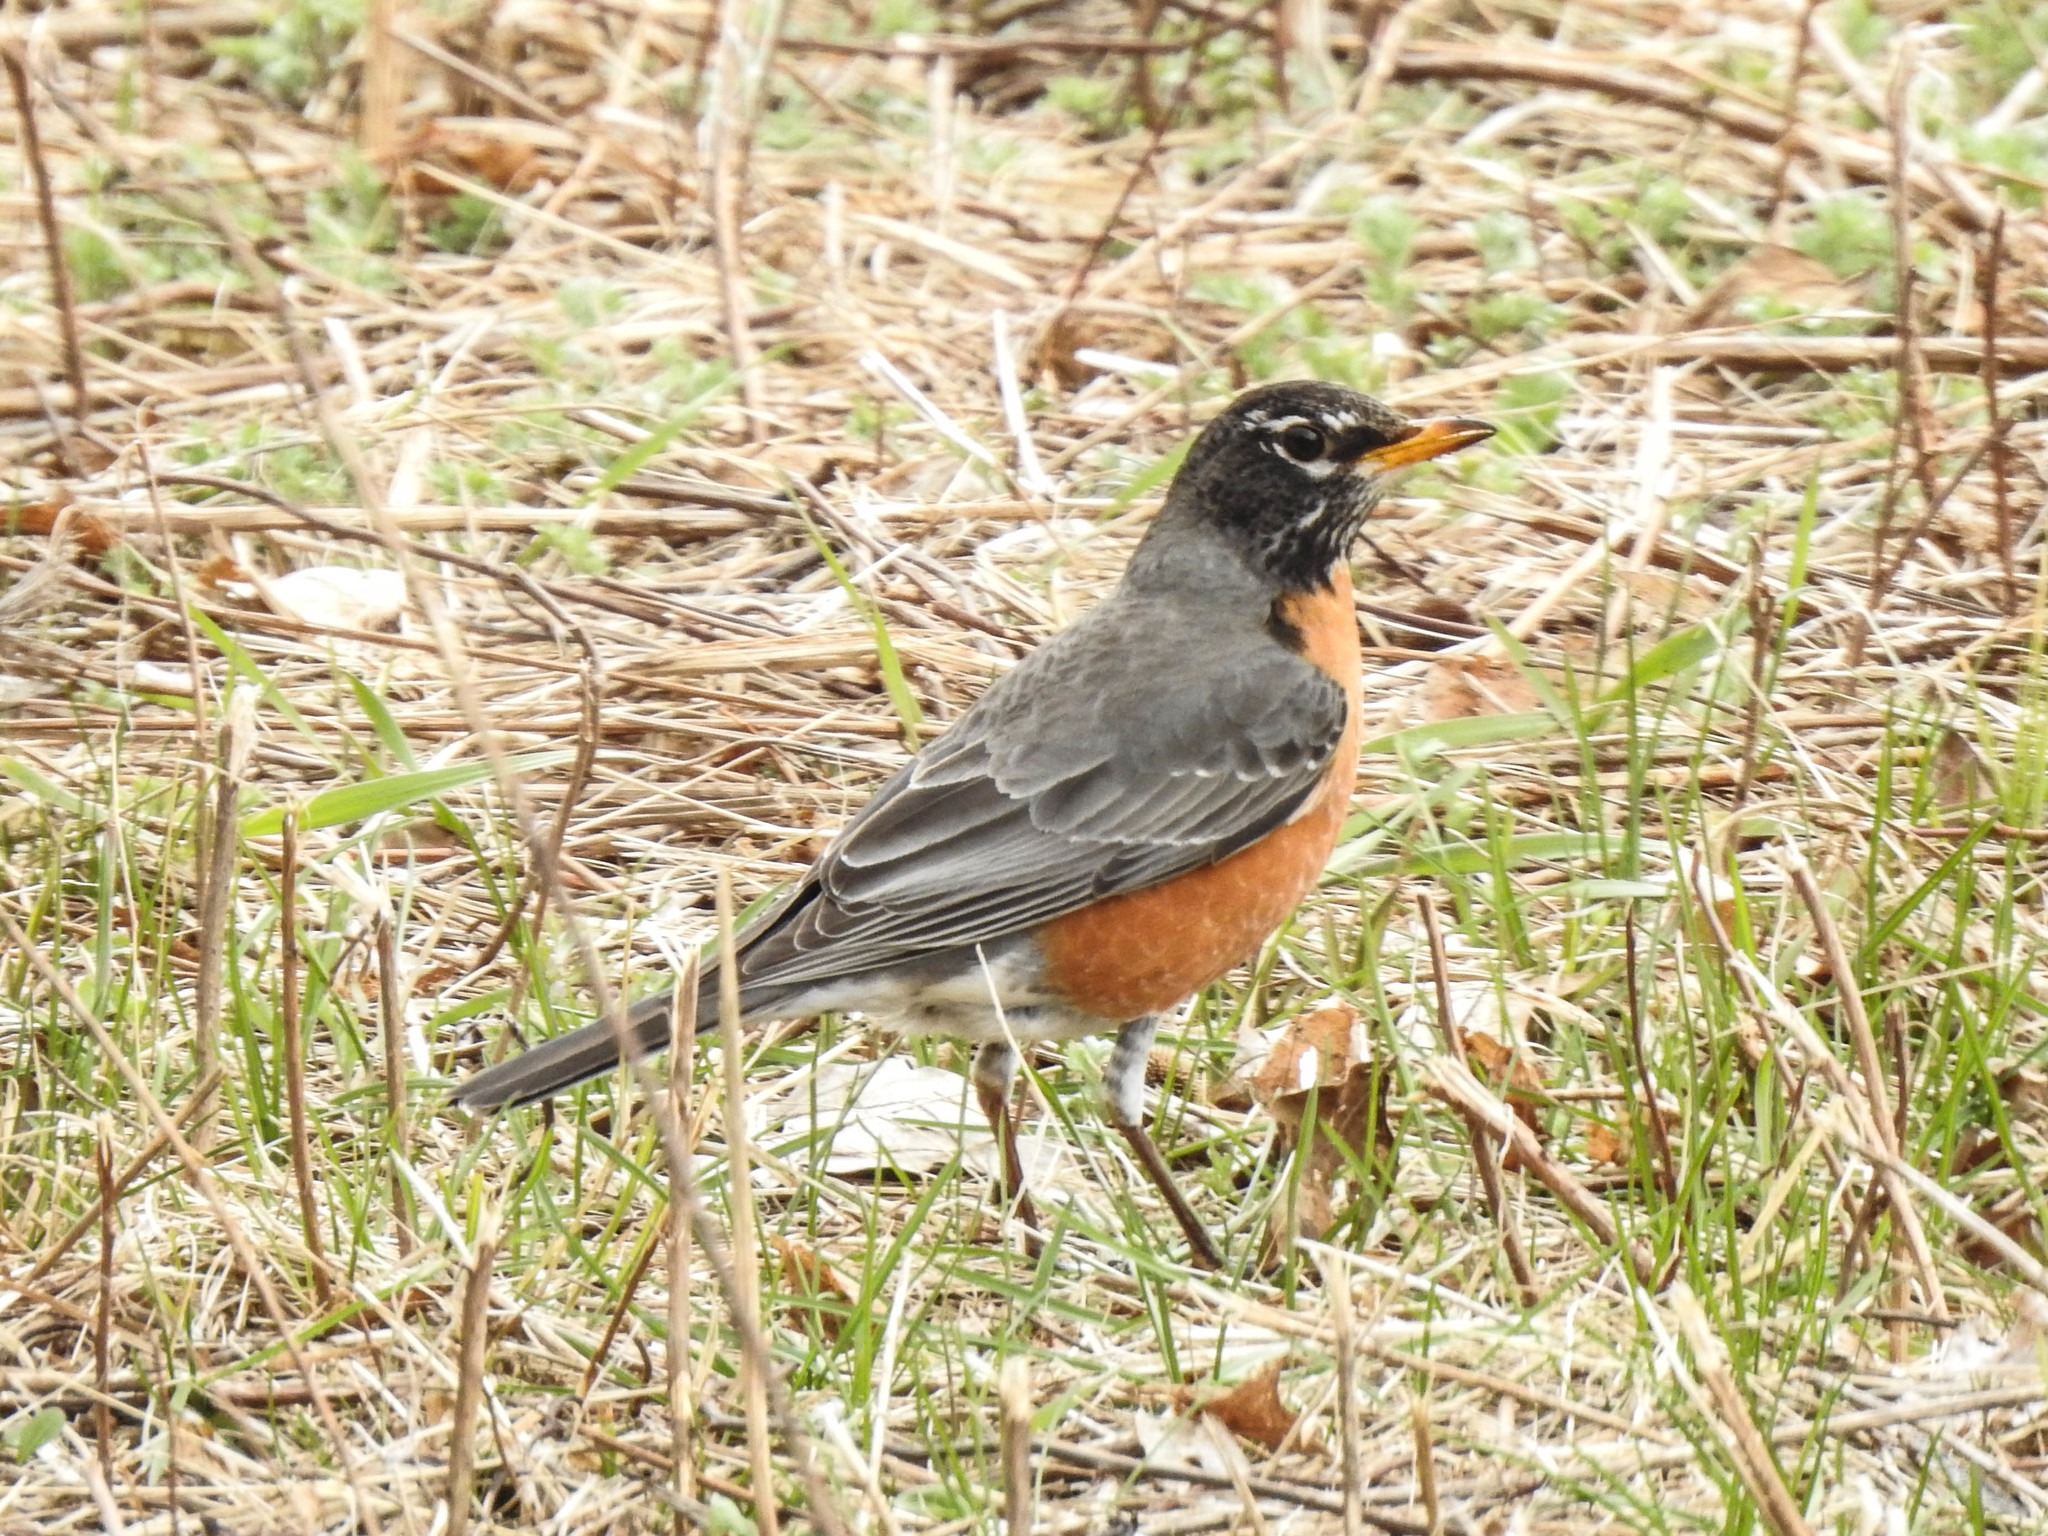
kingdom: Animalia
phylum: Chordata
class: Aves
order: Passeriformes
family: Turdidae
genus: Turdus
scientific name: Turdus migratorius
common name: American robin
